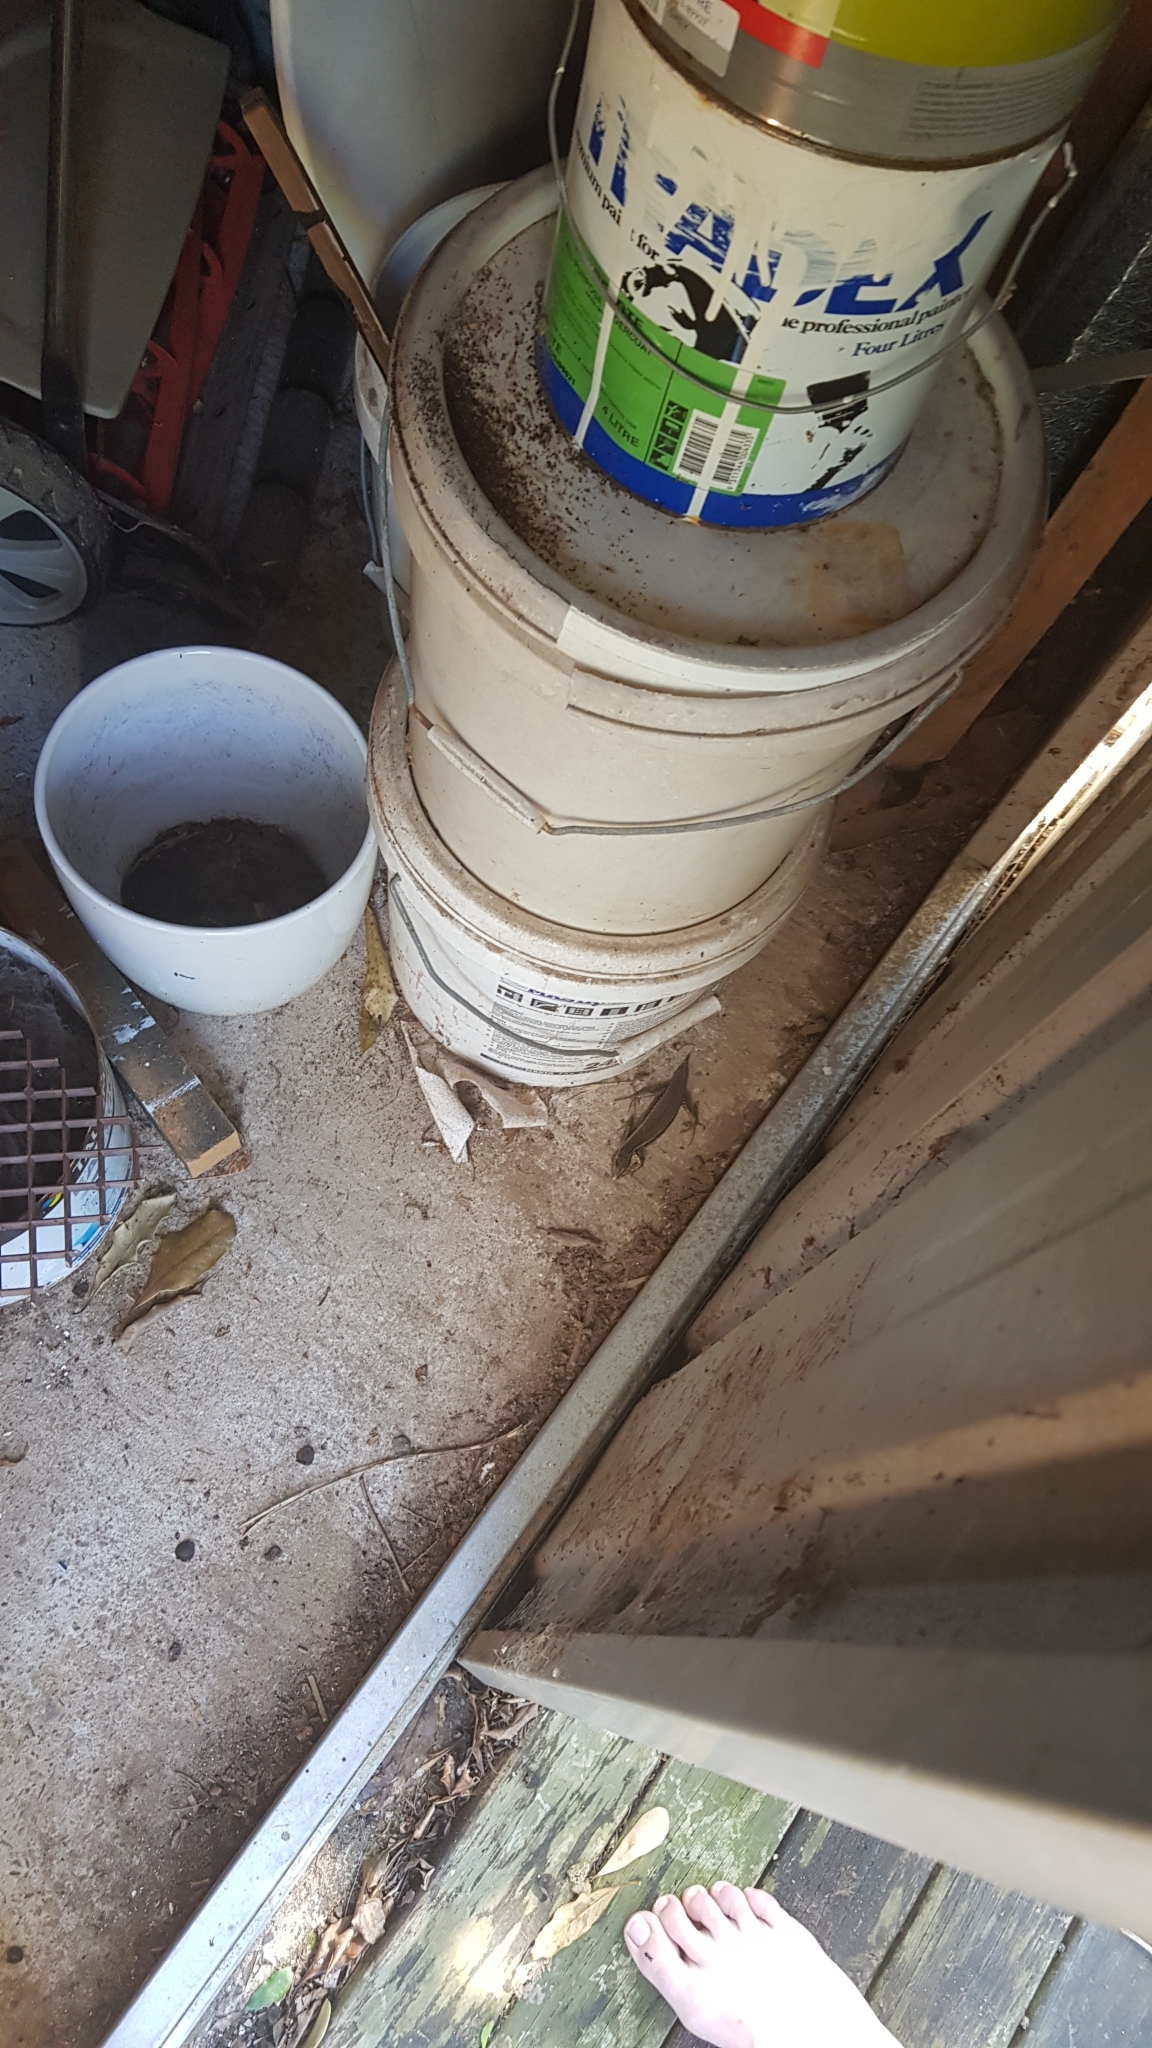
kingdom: Animalia
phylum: Chordata
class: Squamata
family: Scincidae
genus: Eulamprus
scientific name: Eulamprus quoyii
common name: Eastern water skink
